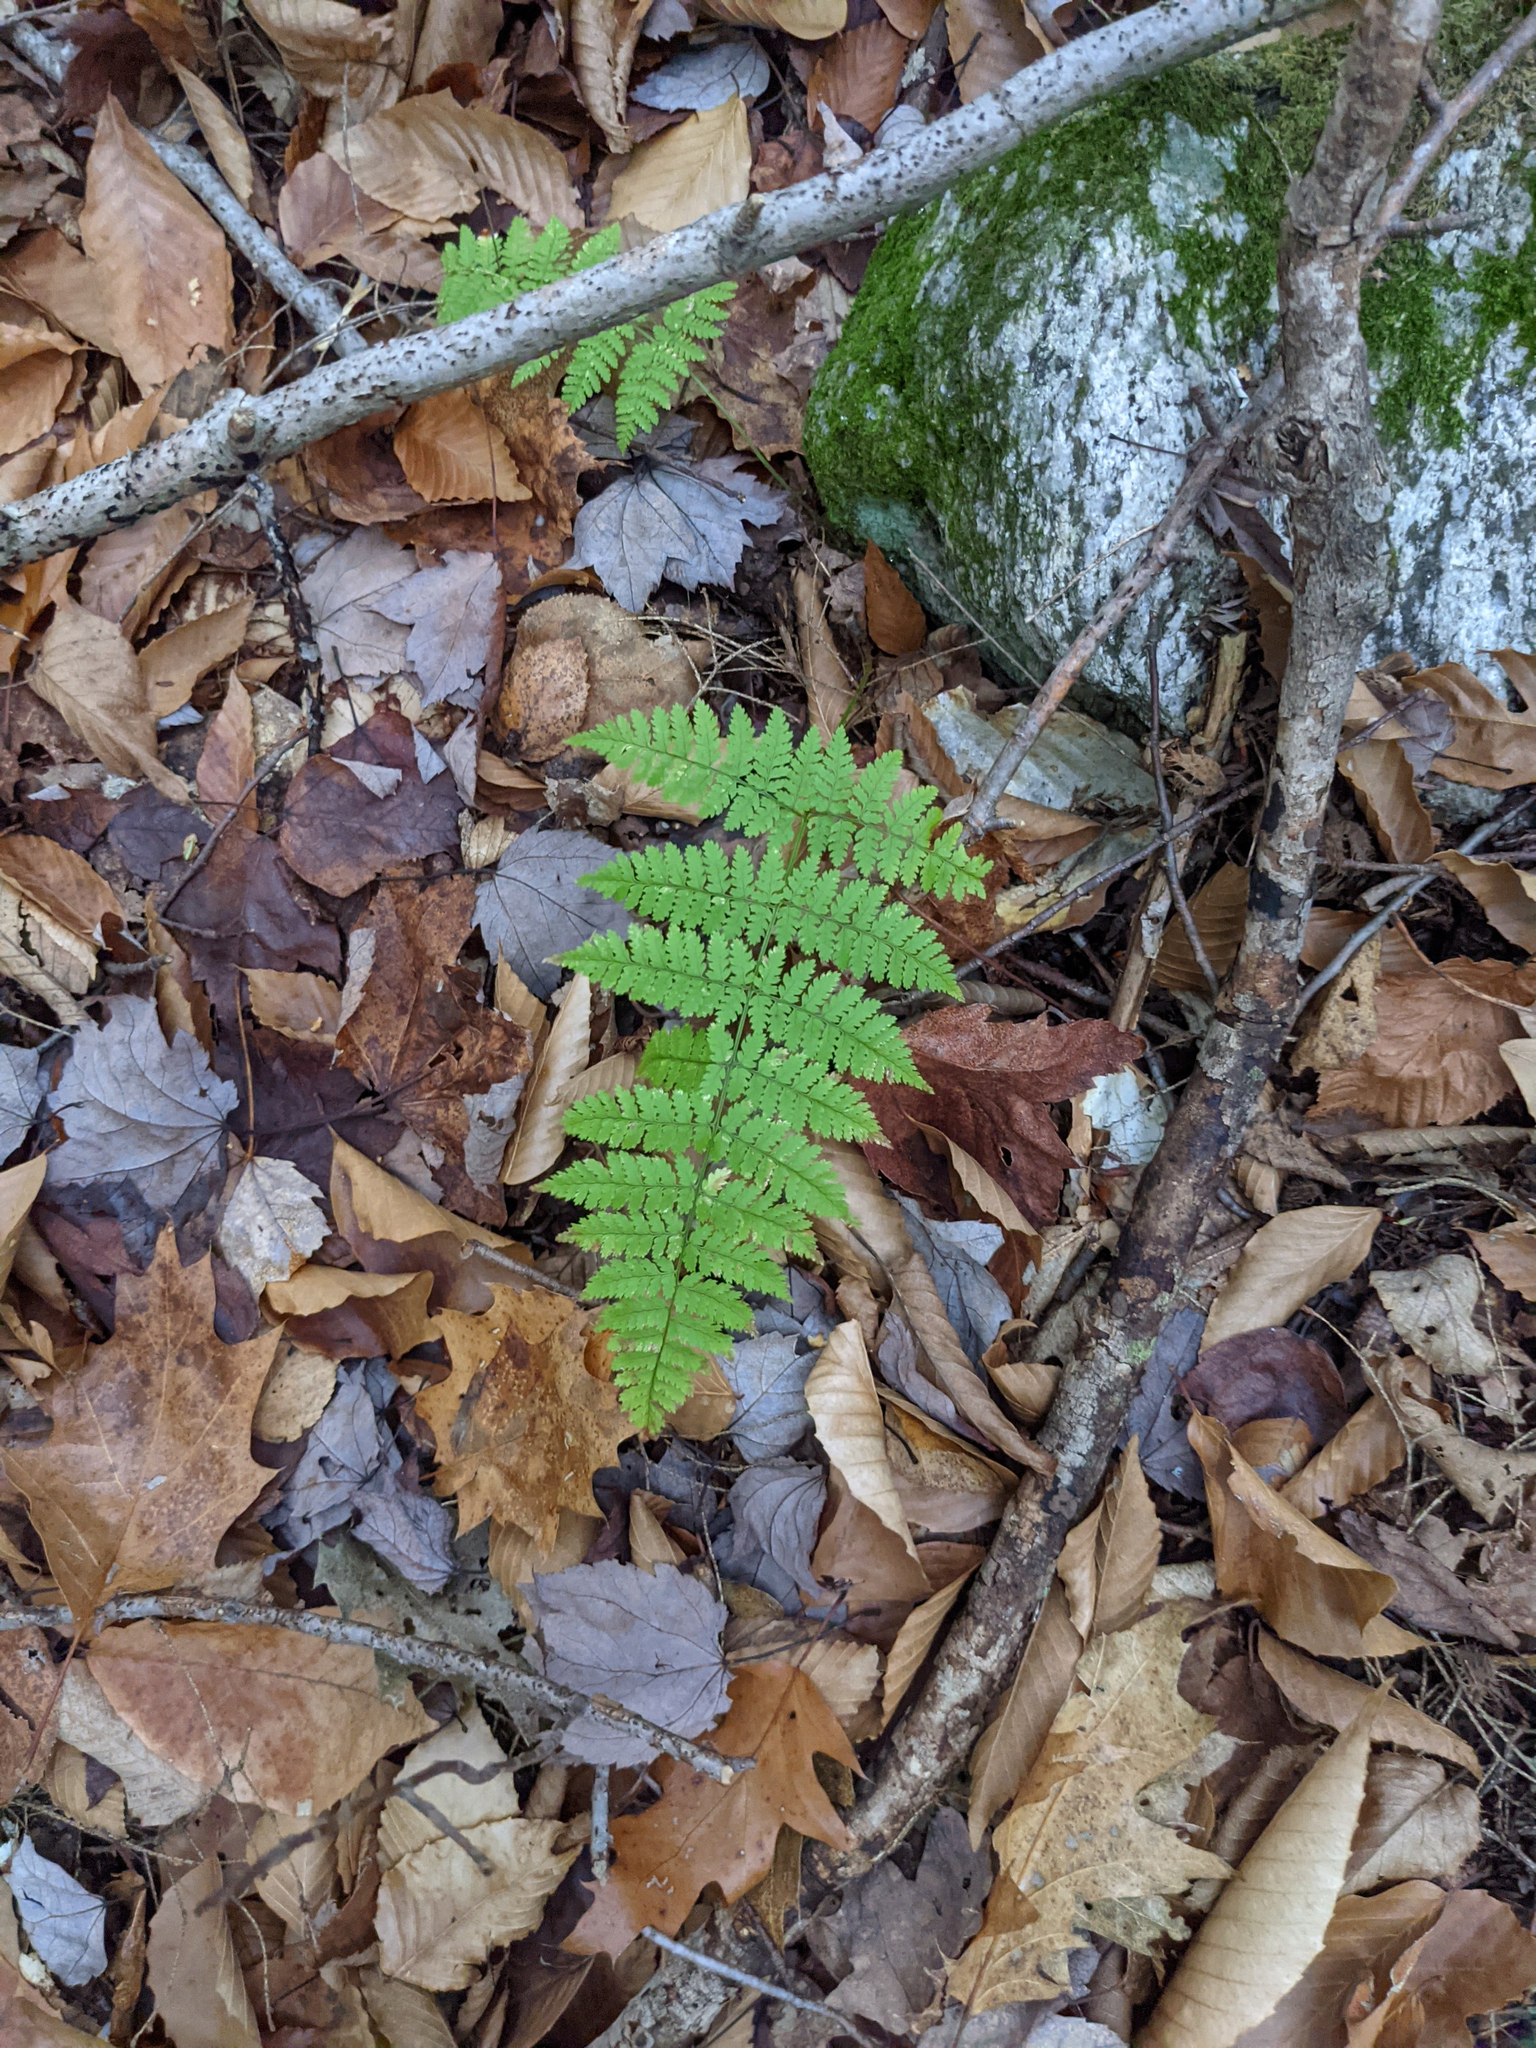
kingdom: Plantae
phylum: Tracheophyta
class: Polypodiopsida
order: Polypodiales
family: Dryopteridaceae
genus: Dryopteris
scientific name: Dryopteris intermedia
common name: Evergreen wood fern
